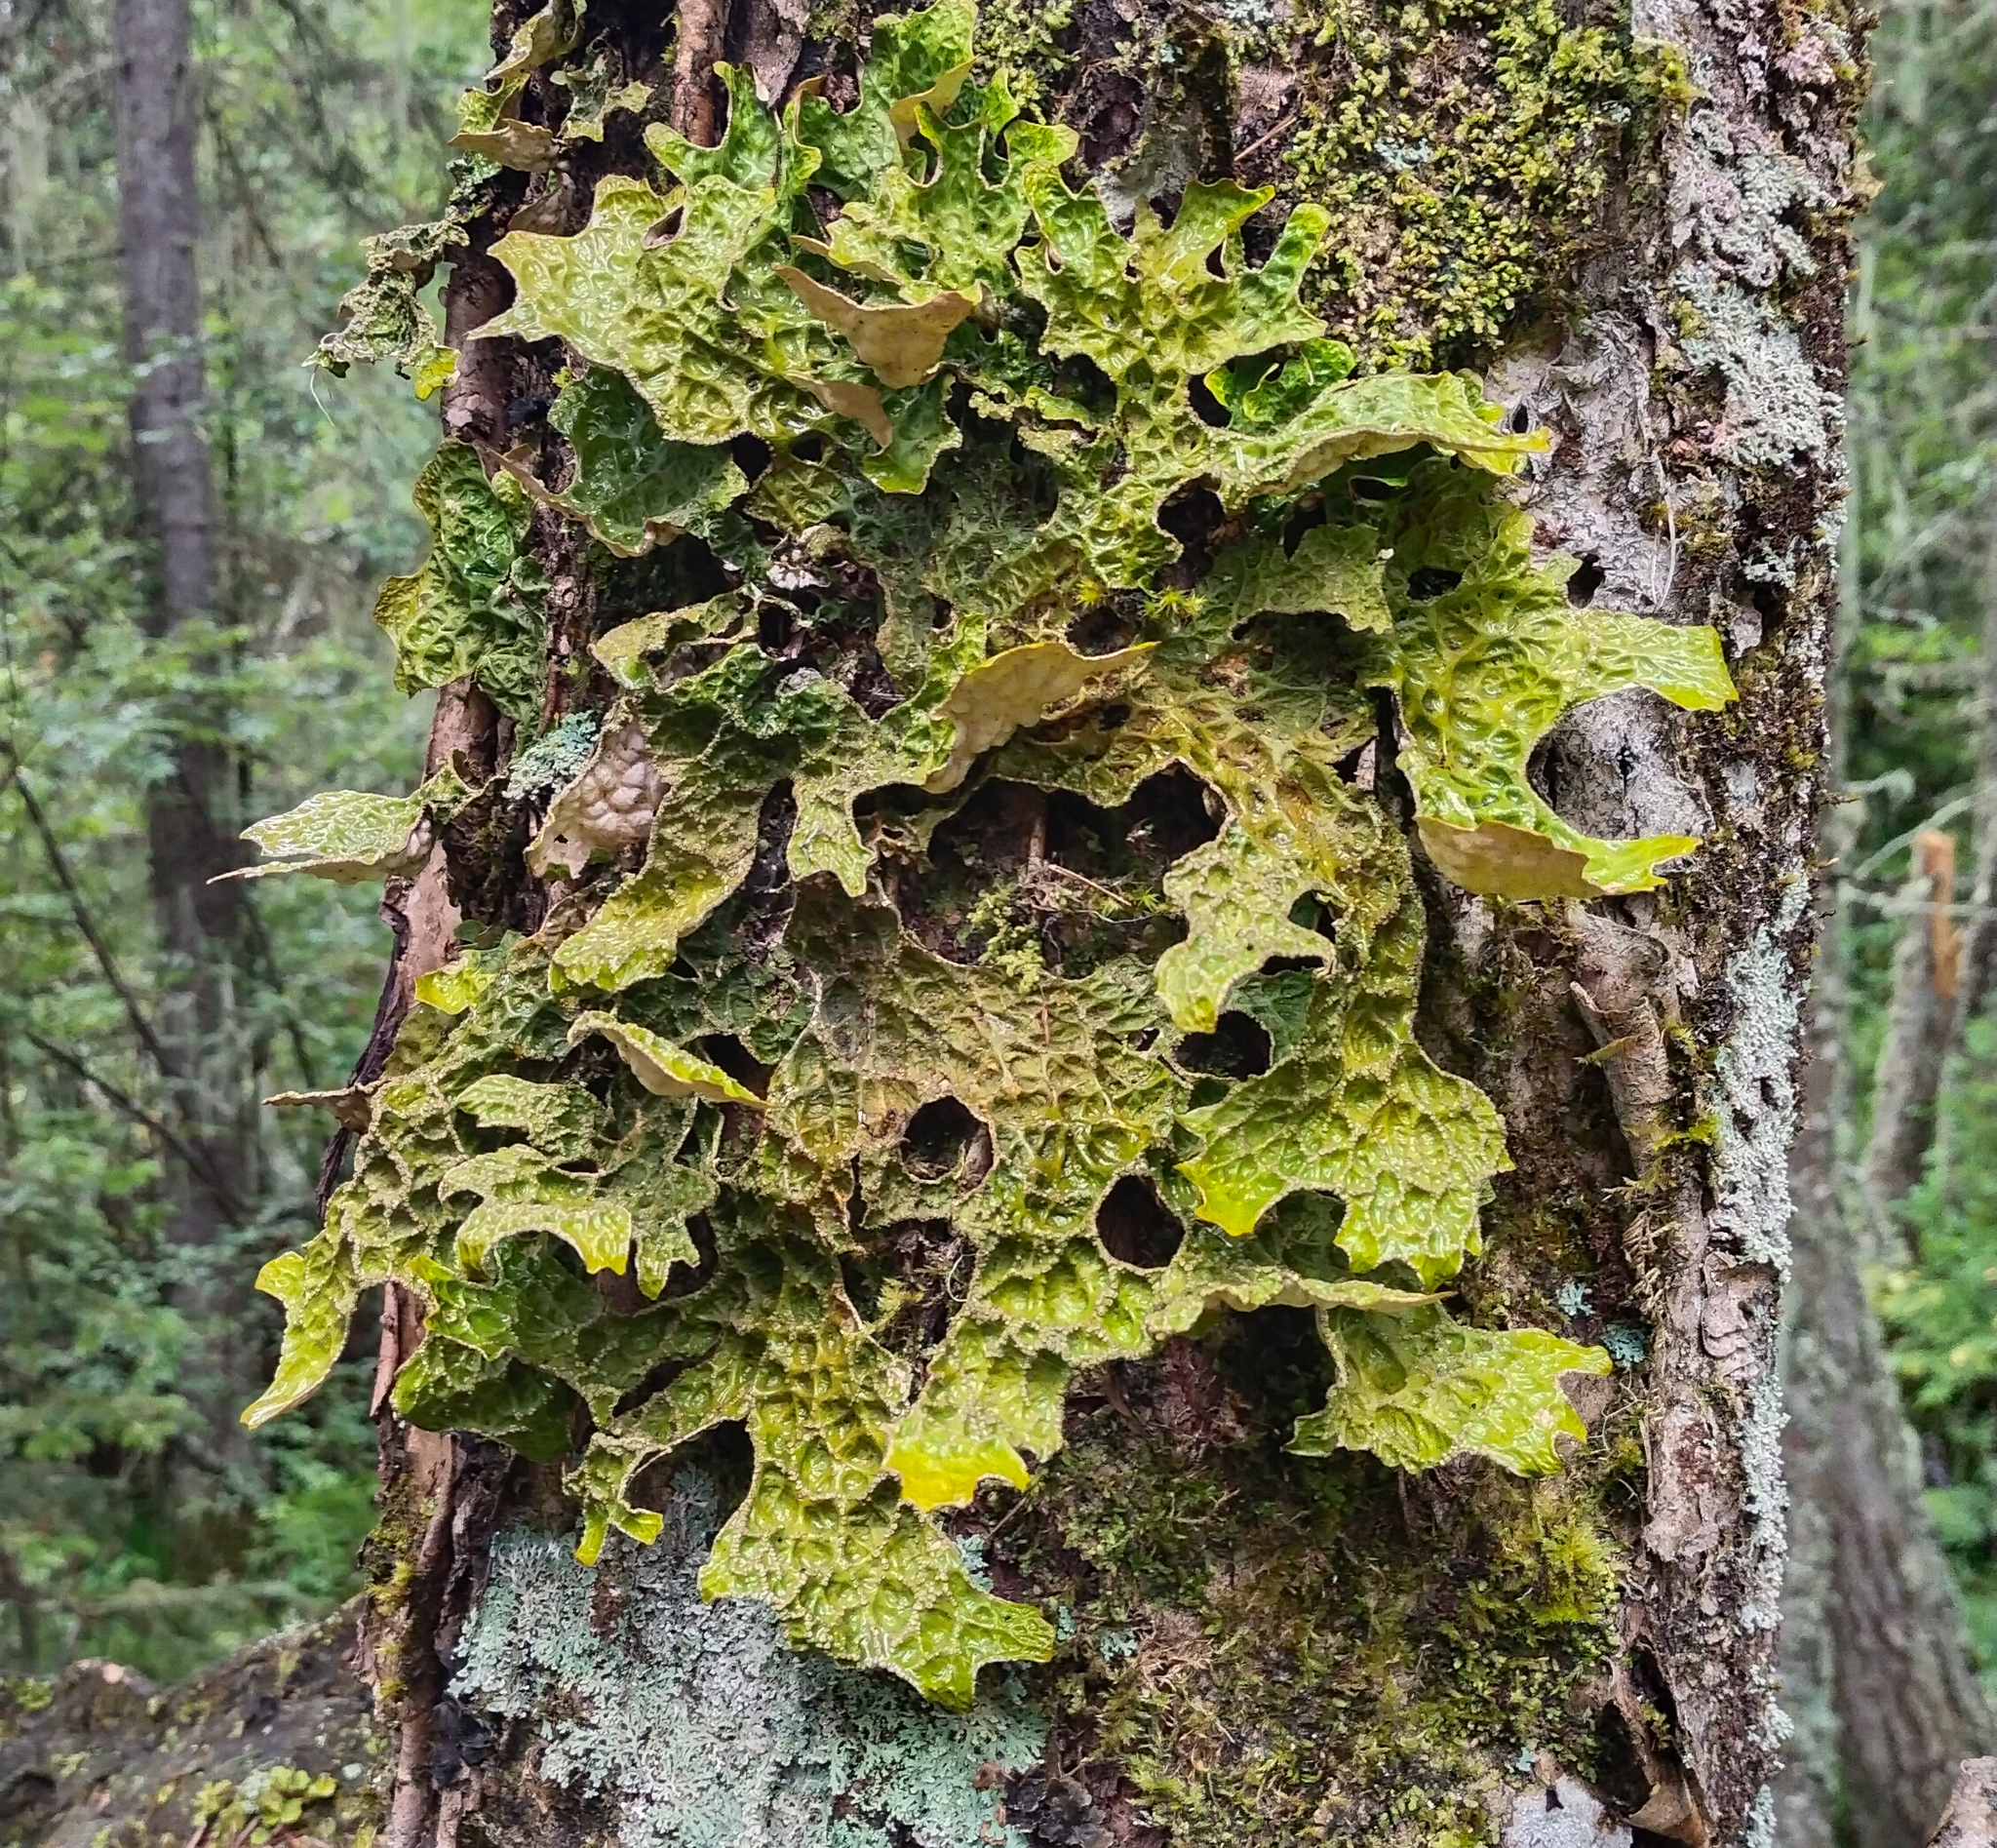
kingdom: Fungi
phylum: Ascomycota
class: Lecanoromycetes
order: Peltigerales
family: Lobariaceae
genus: Lobaria
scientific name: Lobaria pulmonaria
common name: Lungwort
